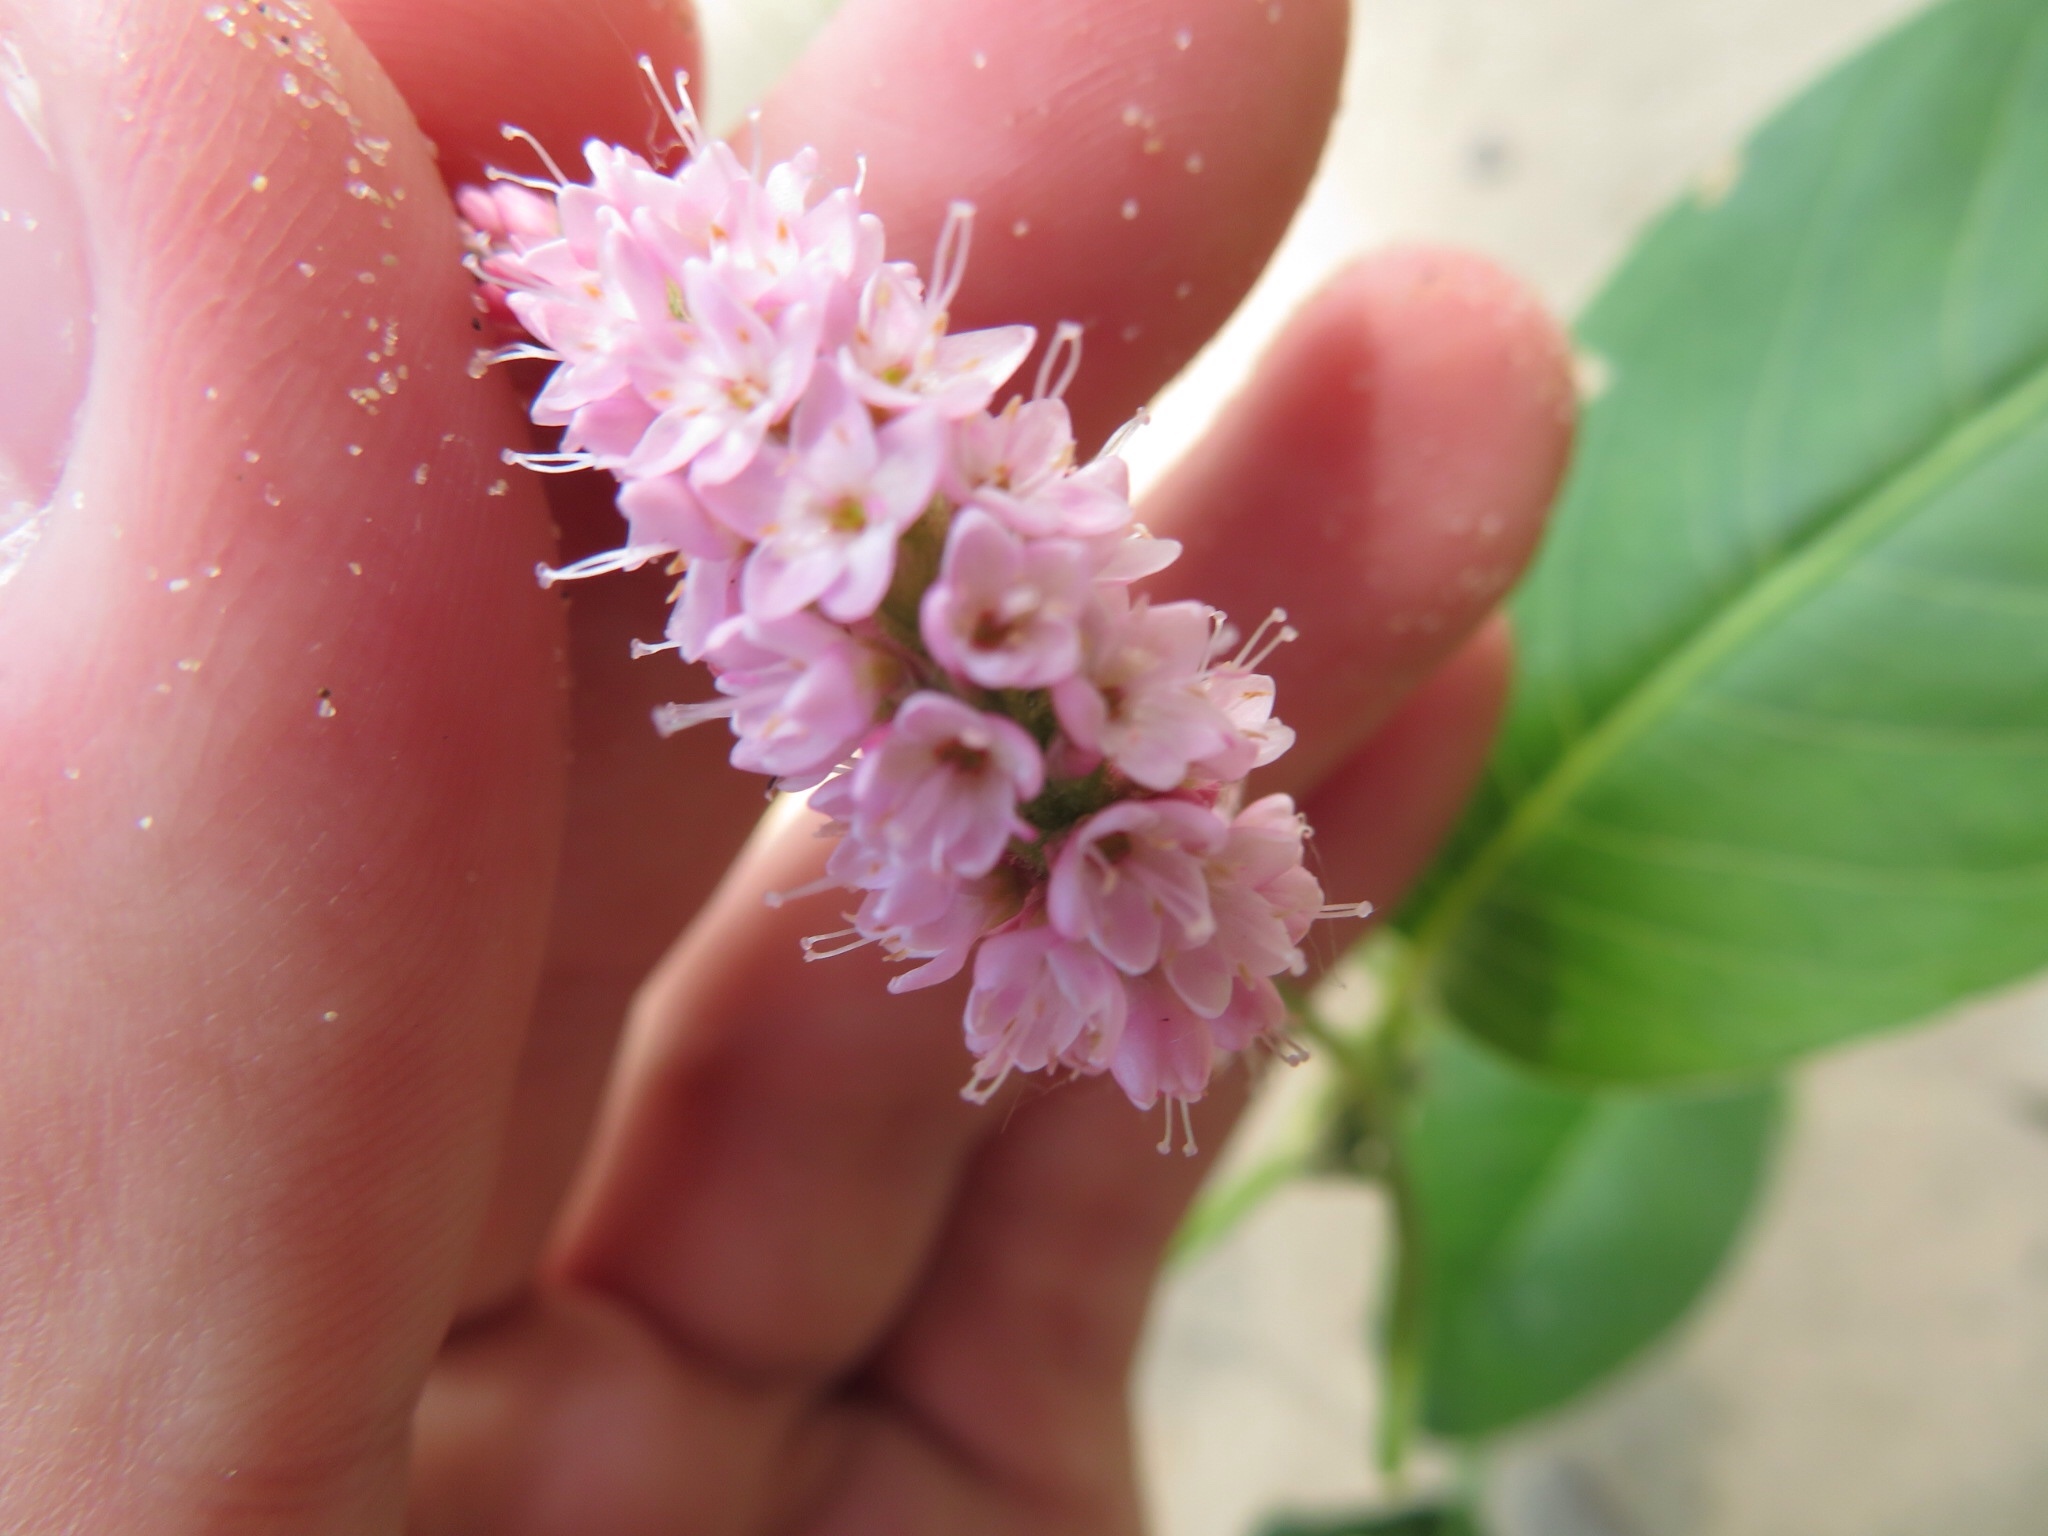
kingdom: Plantae
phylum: Tracheophyta
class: Magnoliopsida
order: Caryophyllales
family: Polygonaceae
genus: Persicaria
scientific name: Persicaria amphibia
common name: Amphibious bistort
